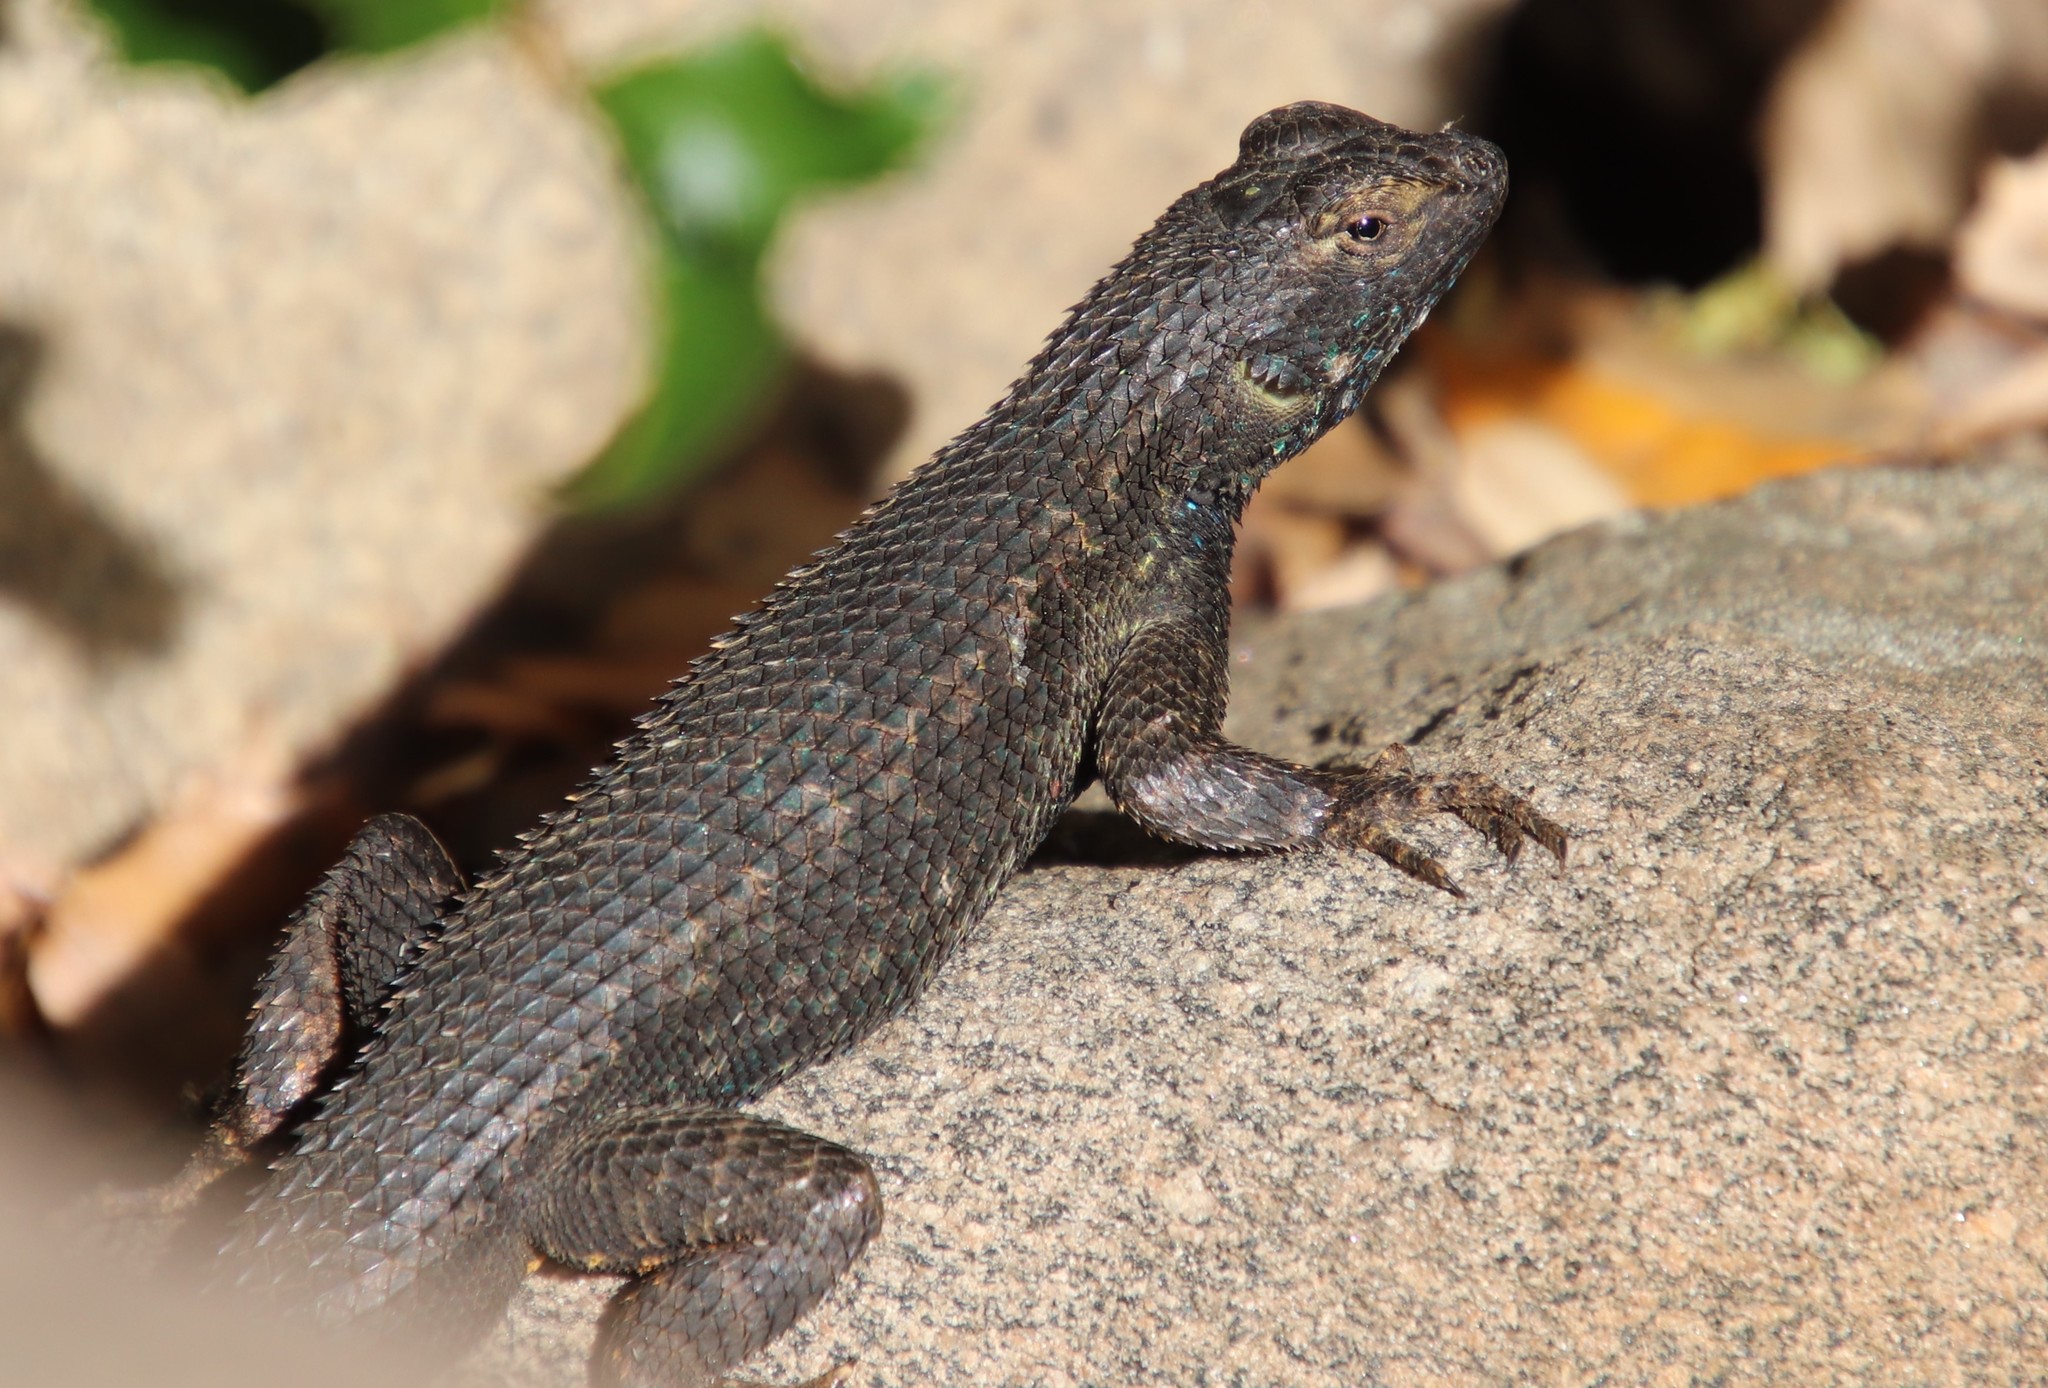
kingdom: Animalia
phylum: Chordata
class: Squamata
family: Phrynosomatidae
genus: Sceloporus
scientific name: Sceloporus occidentalis
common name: Western fence lizard
